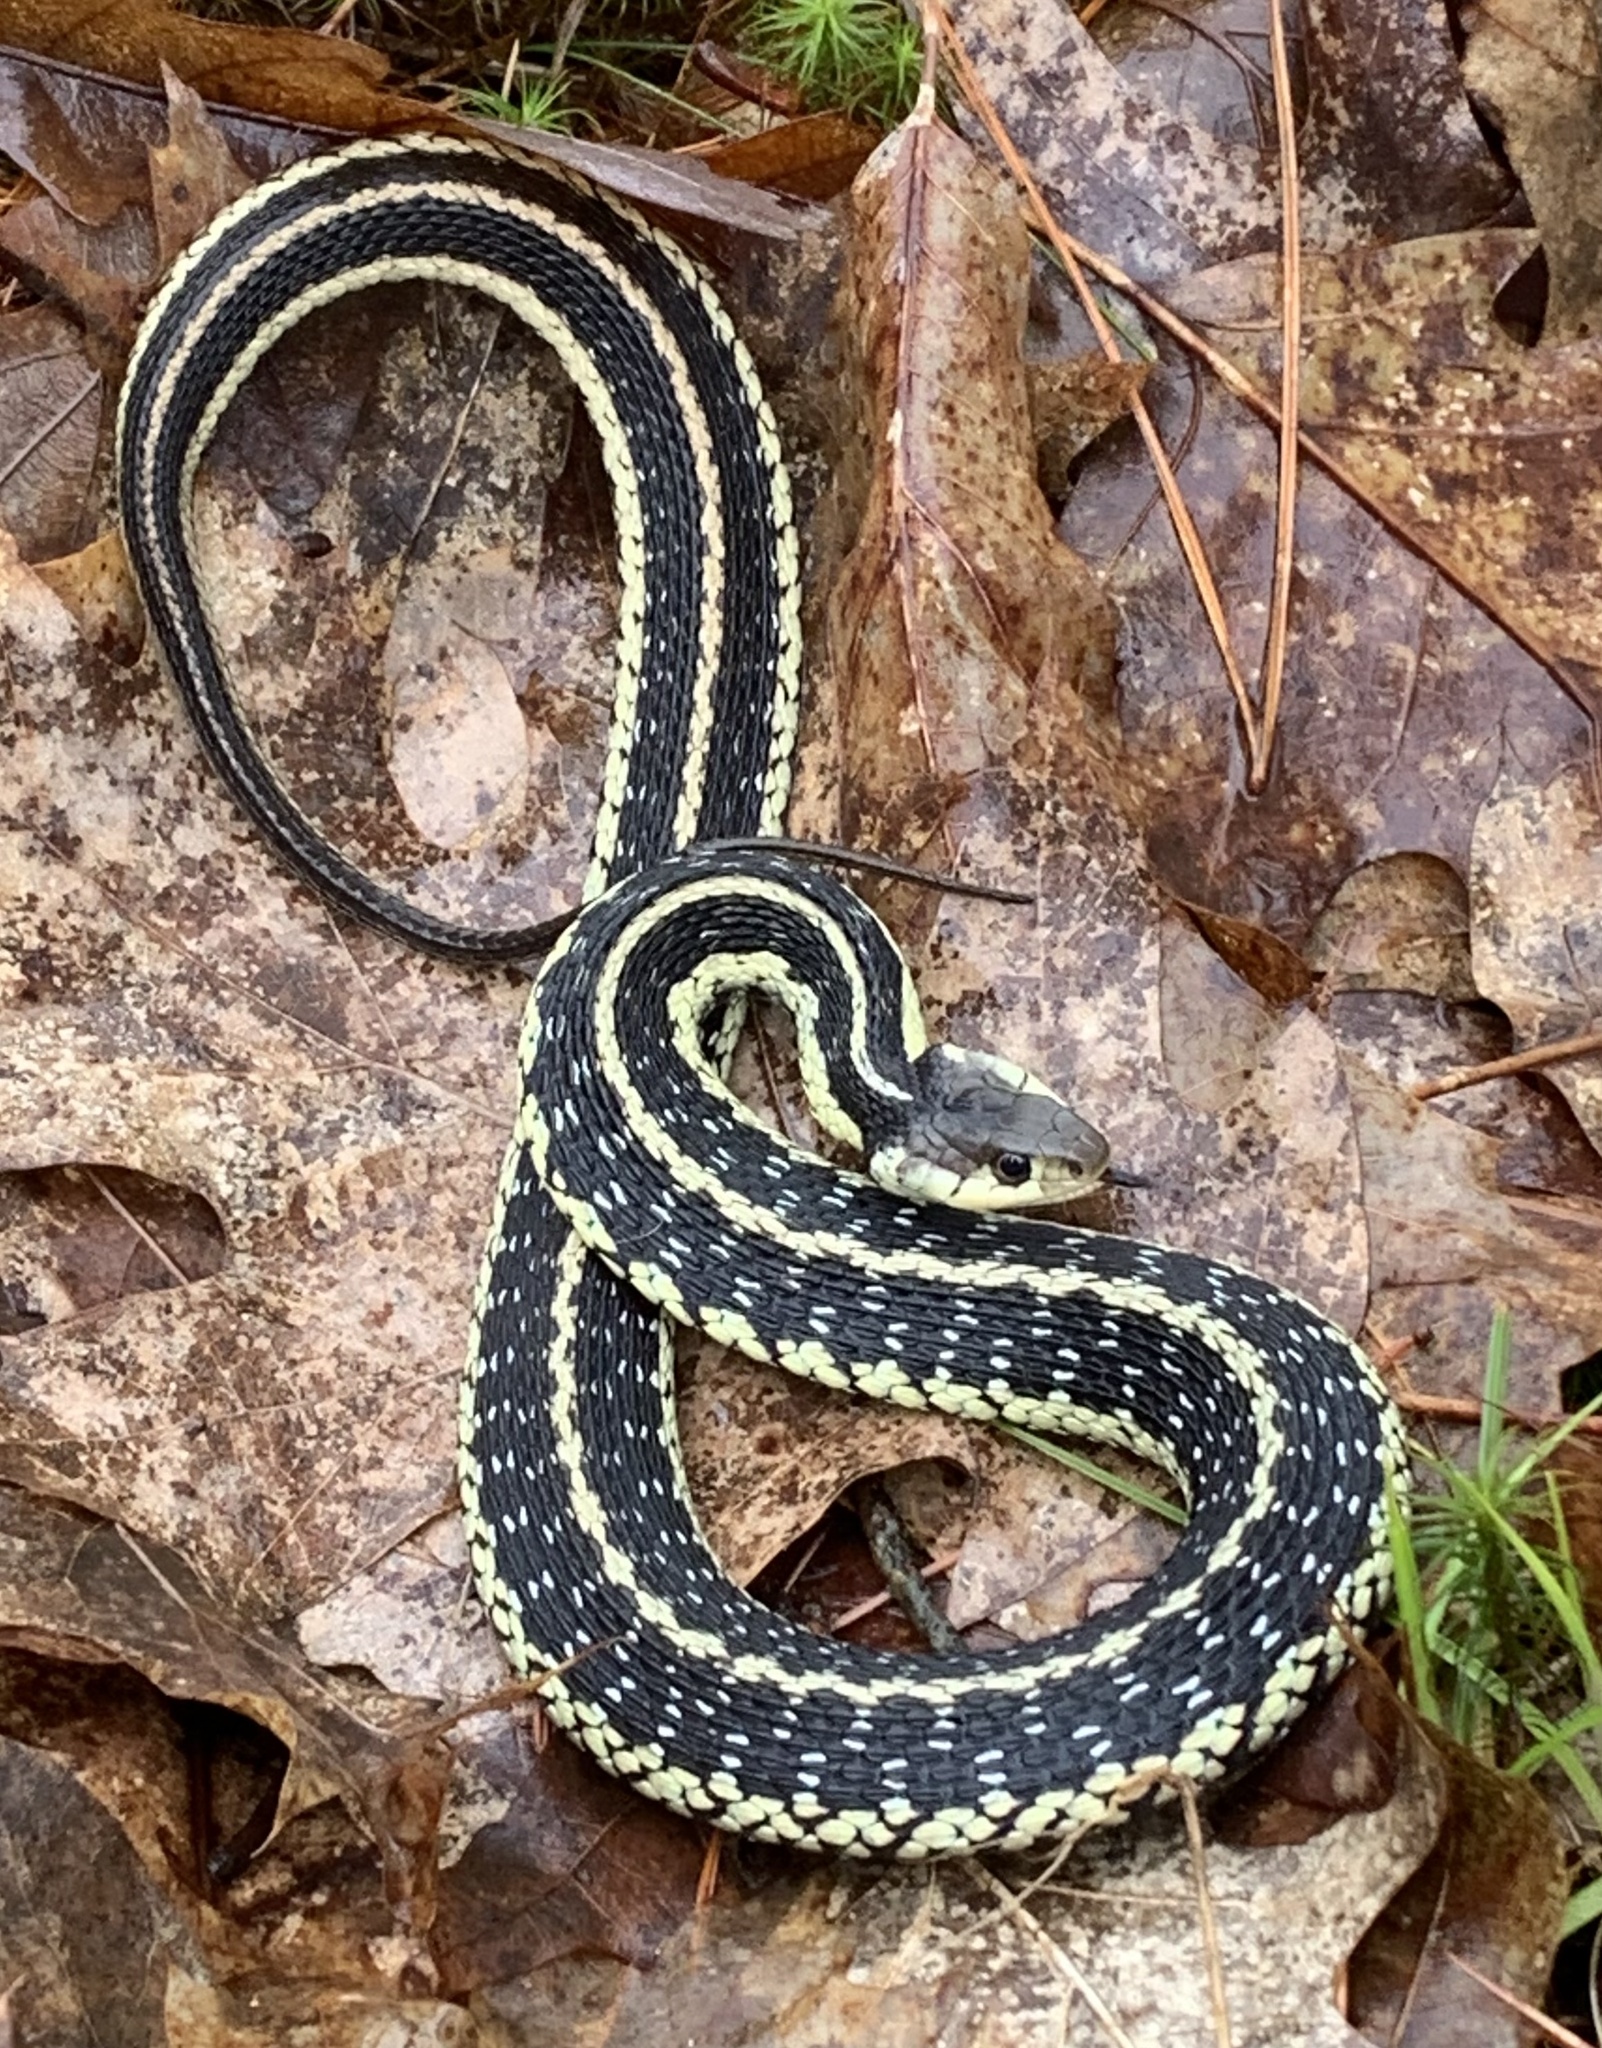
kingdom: Animalia
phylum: Chordata
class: Squamata
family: Colubridae
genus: Thamnophis
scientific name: Thamnophis sirtalis
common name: Common garter snake
